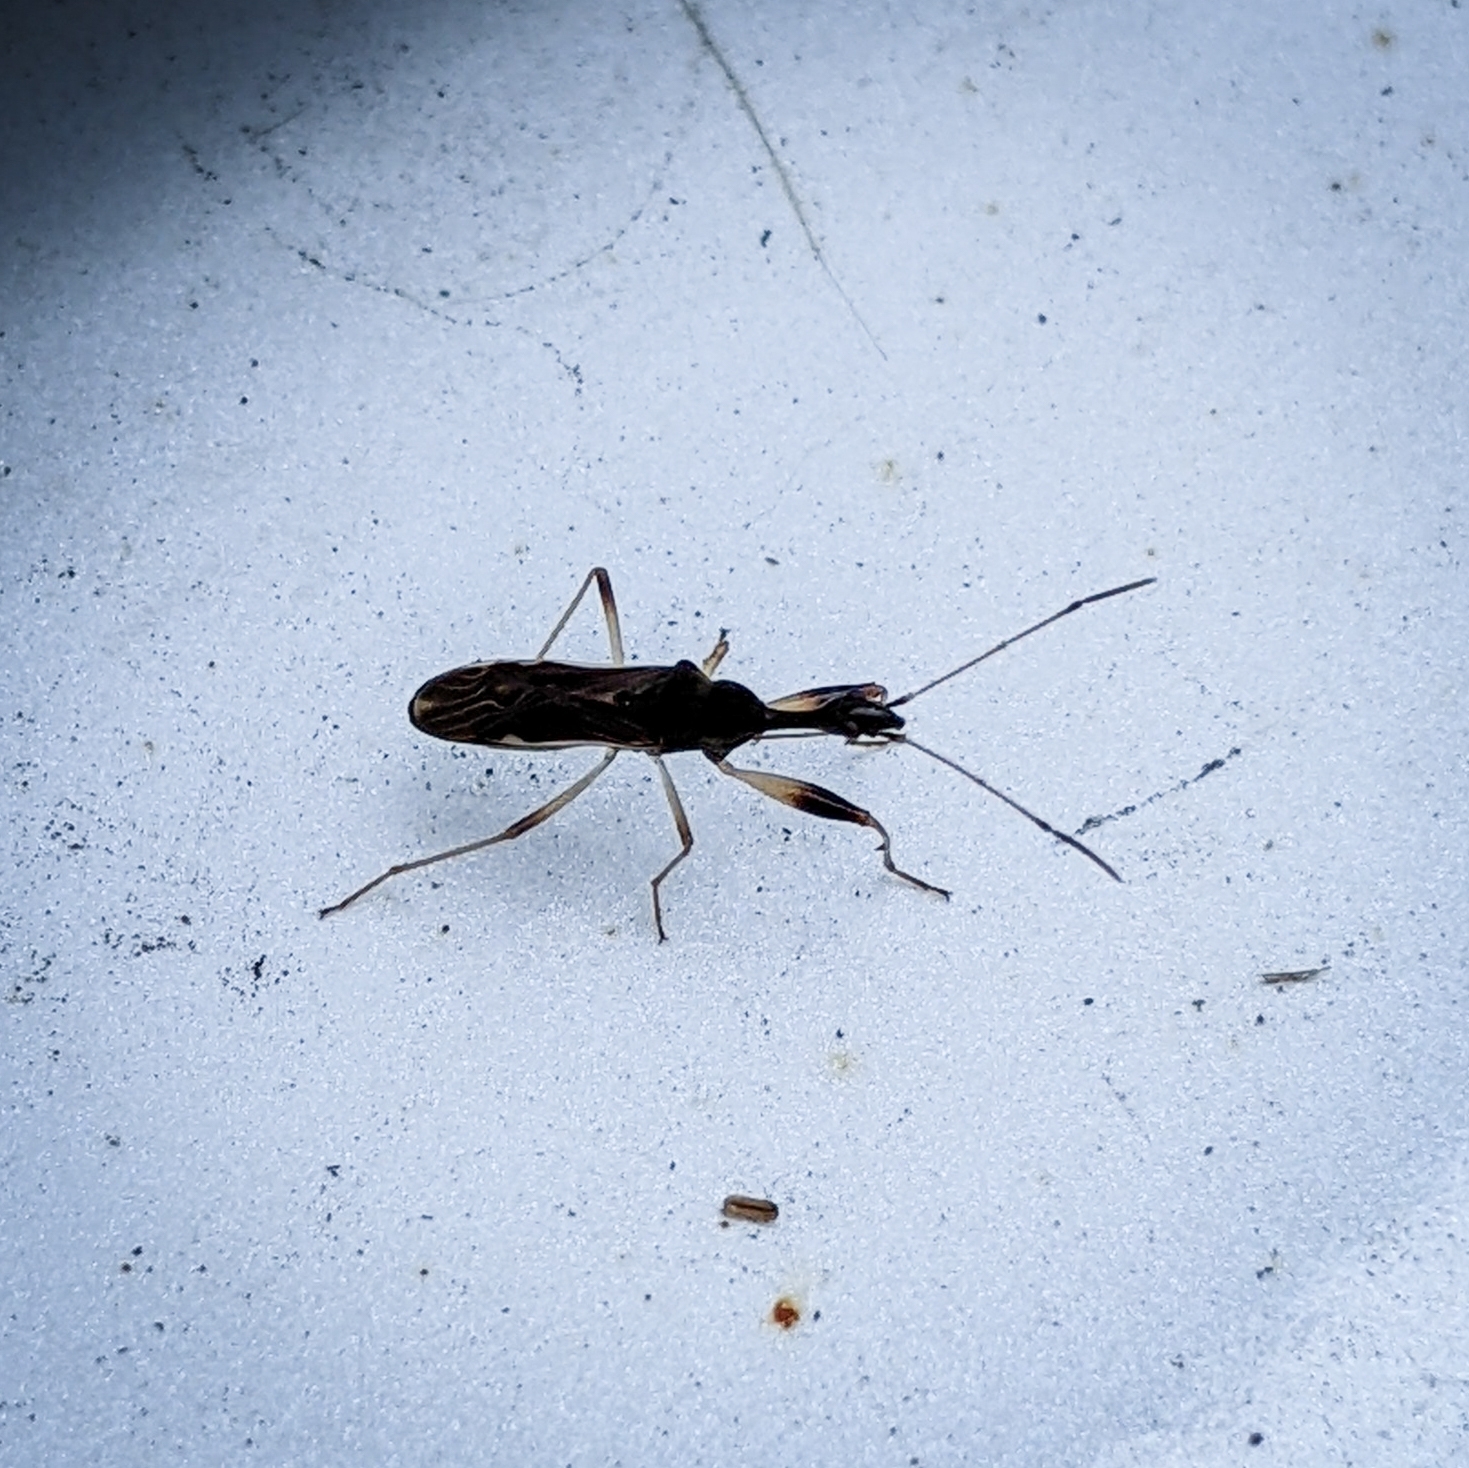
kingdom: Animalia
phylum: Arthropoda
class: Insecta
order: Hemiptera
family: Rhyparochromidae
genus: Myodocha
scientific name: Myodocha serripes
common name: Long-necked seed bug
